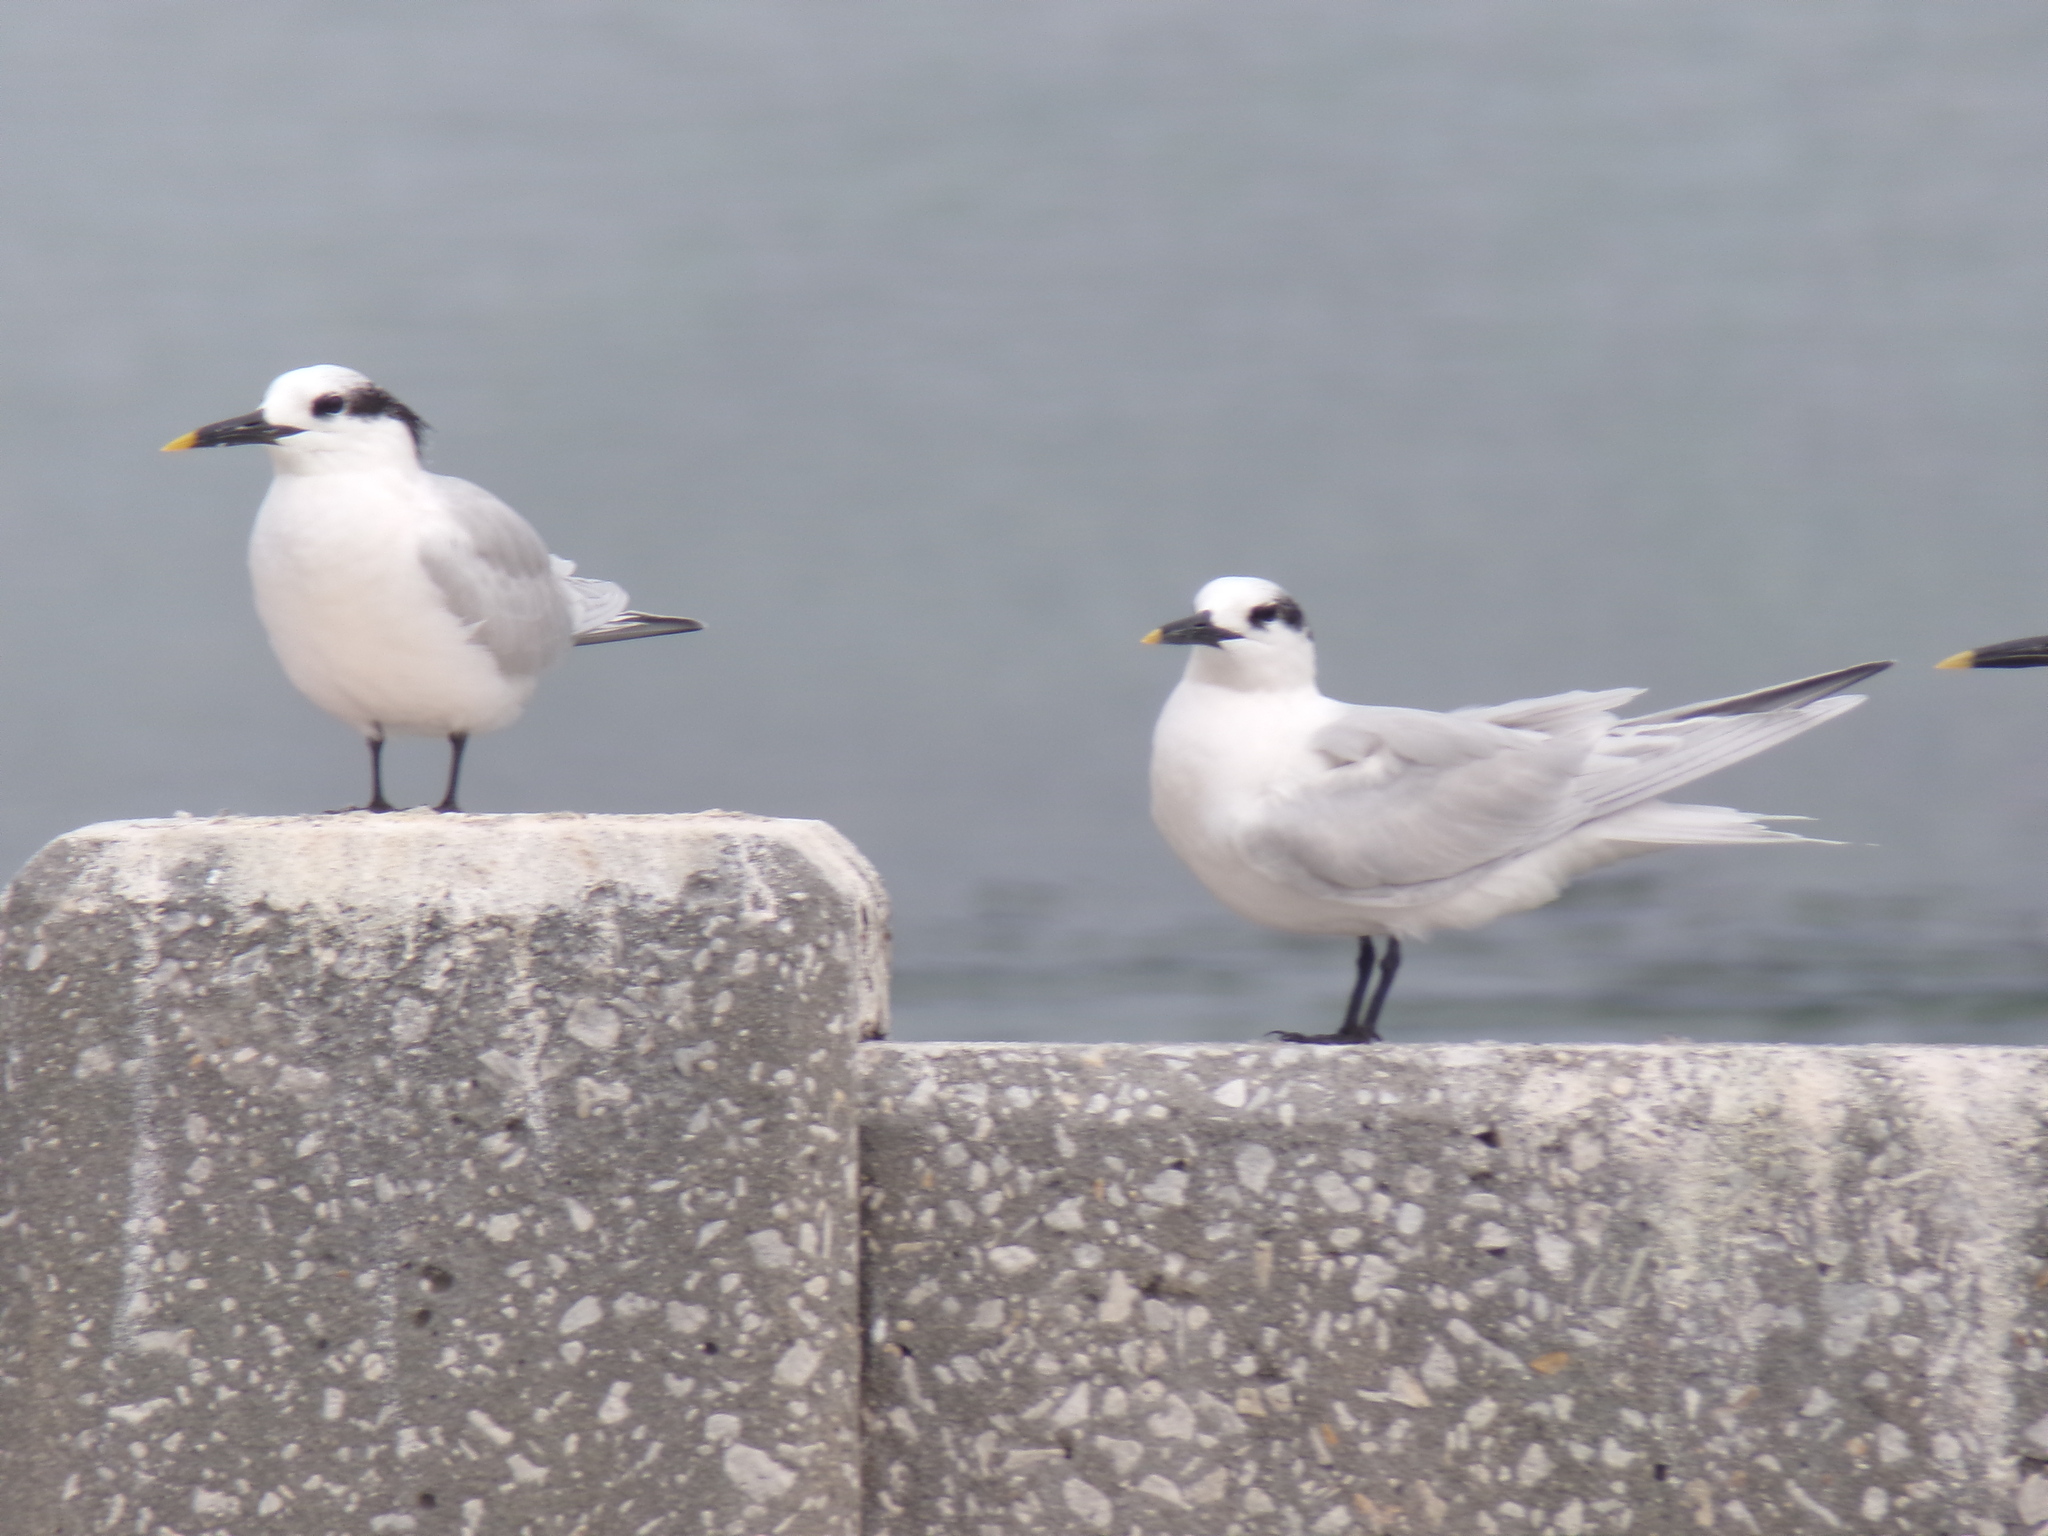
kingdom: Animalia
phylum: Chordata
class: Aves
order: Charadriiformes
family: Laridae
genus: Thalasseus
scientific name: Thalasseus acuflavidus
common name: Cabot's tern
